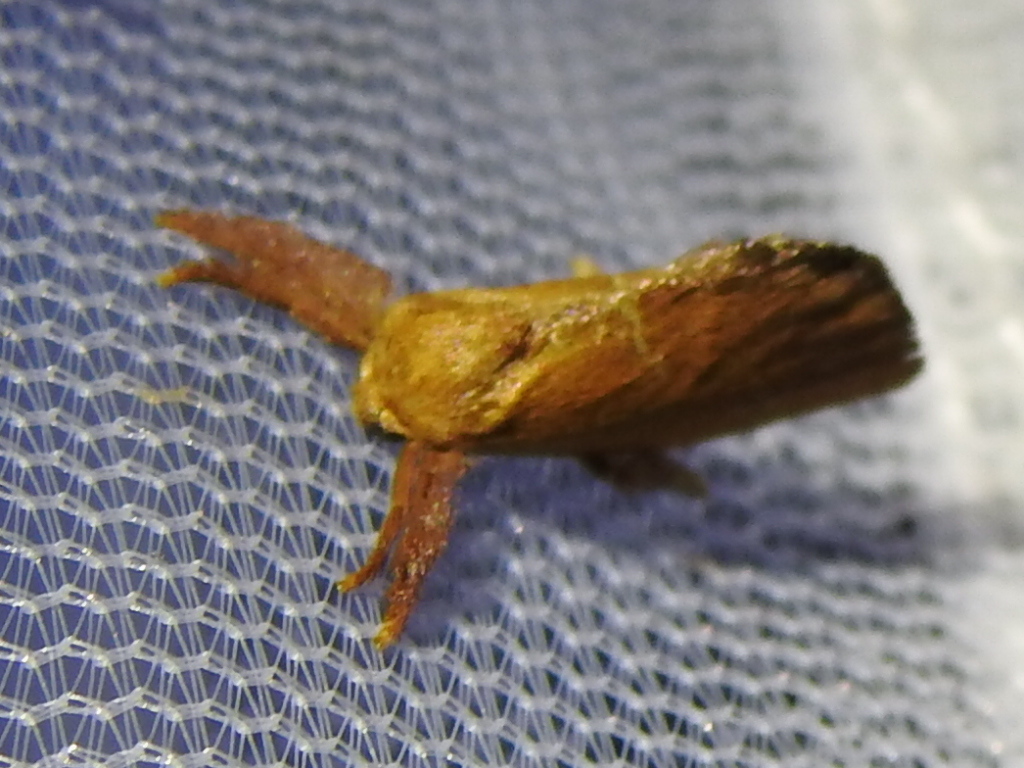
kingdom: Animalia
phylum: Arthropoda
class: Insecta
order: Lepidoptera
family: Limacodidae
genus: Adoneta
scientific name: Adoneta pygmaea
